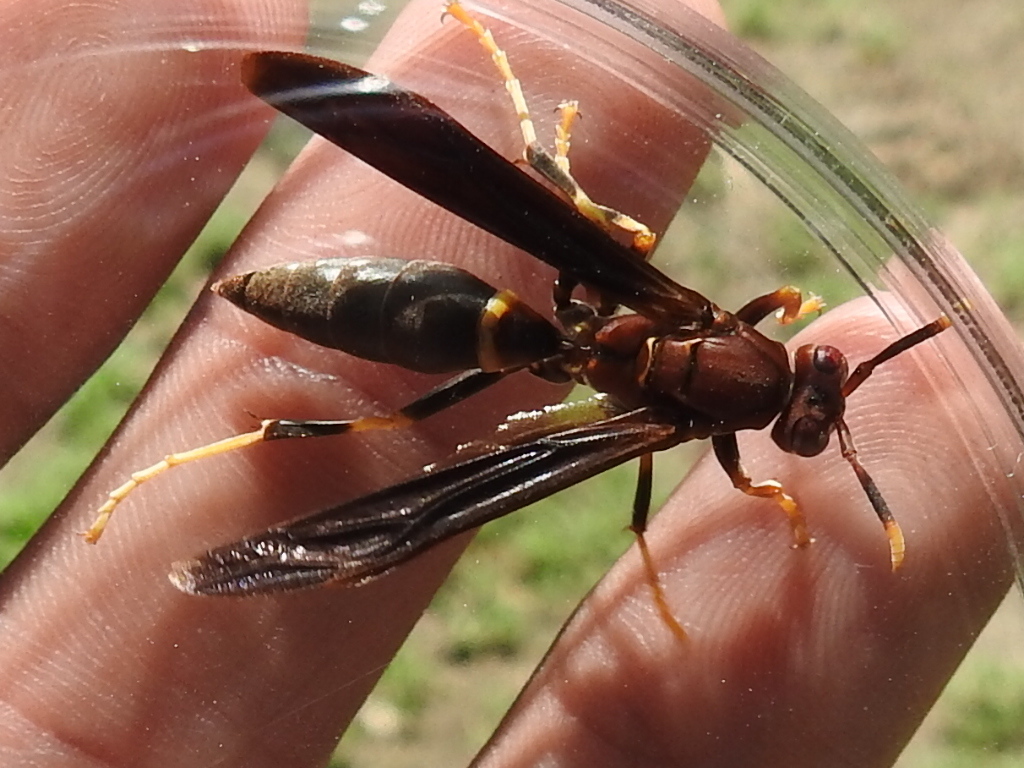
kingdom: Animalia
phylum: Arthropoda
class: Insecta
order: Hymenoptera
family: Eumenidae
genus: Polistes
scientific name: Polistes annularis
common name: Ringed paper wasp
